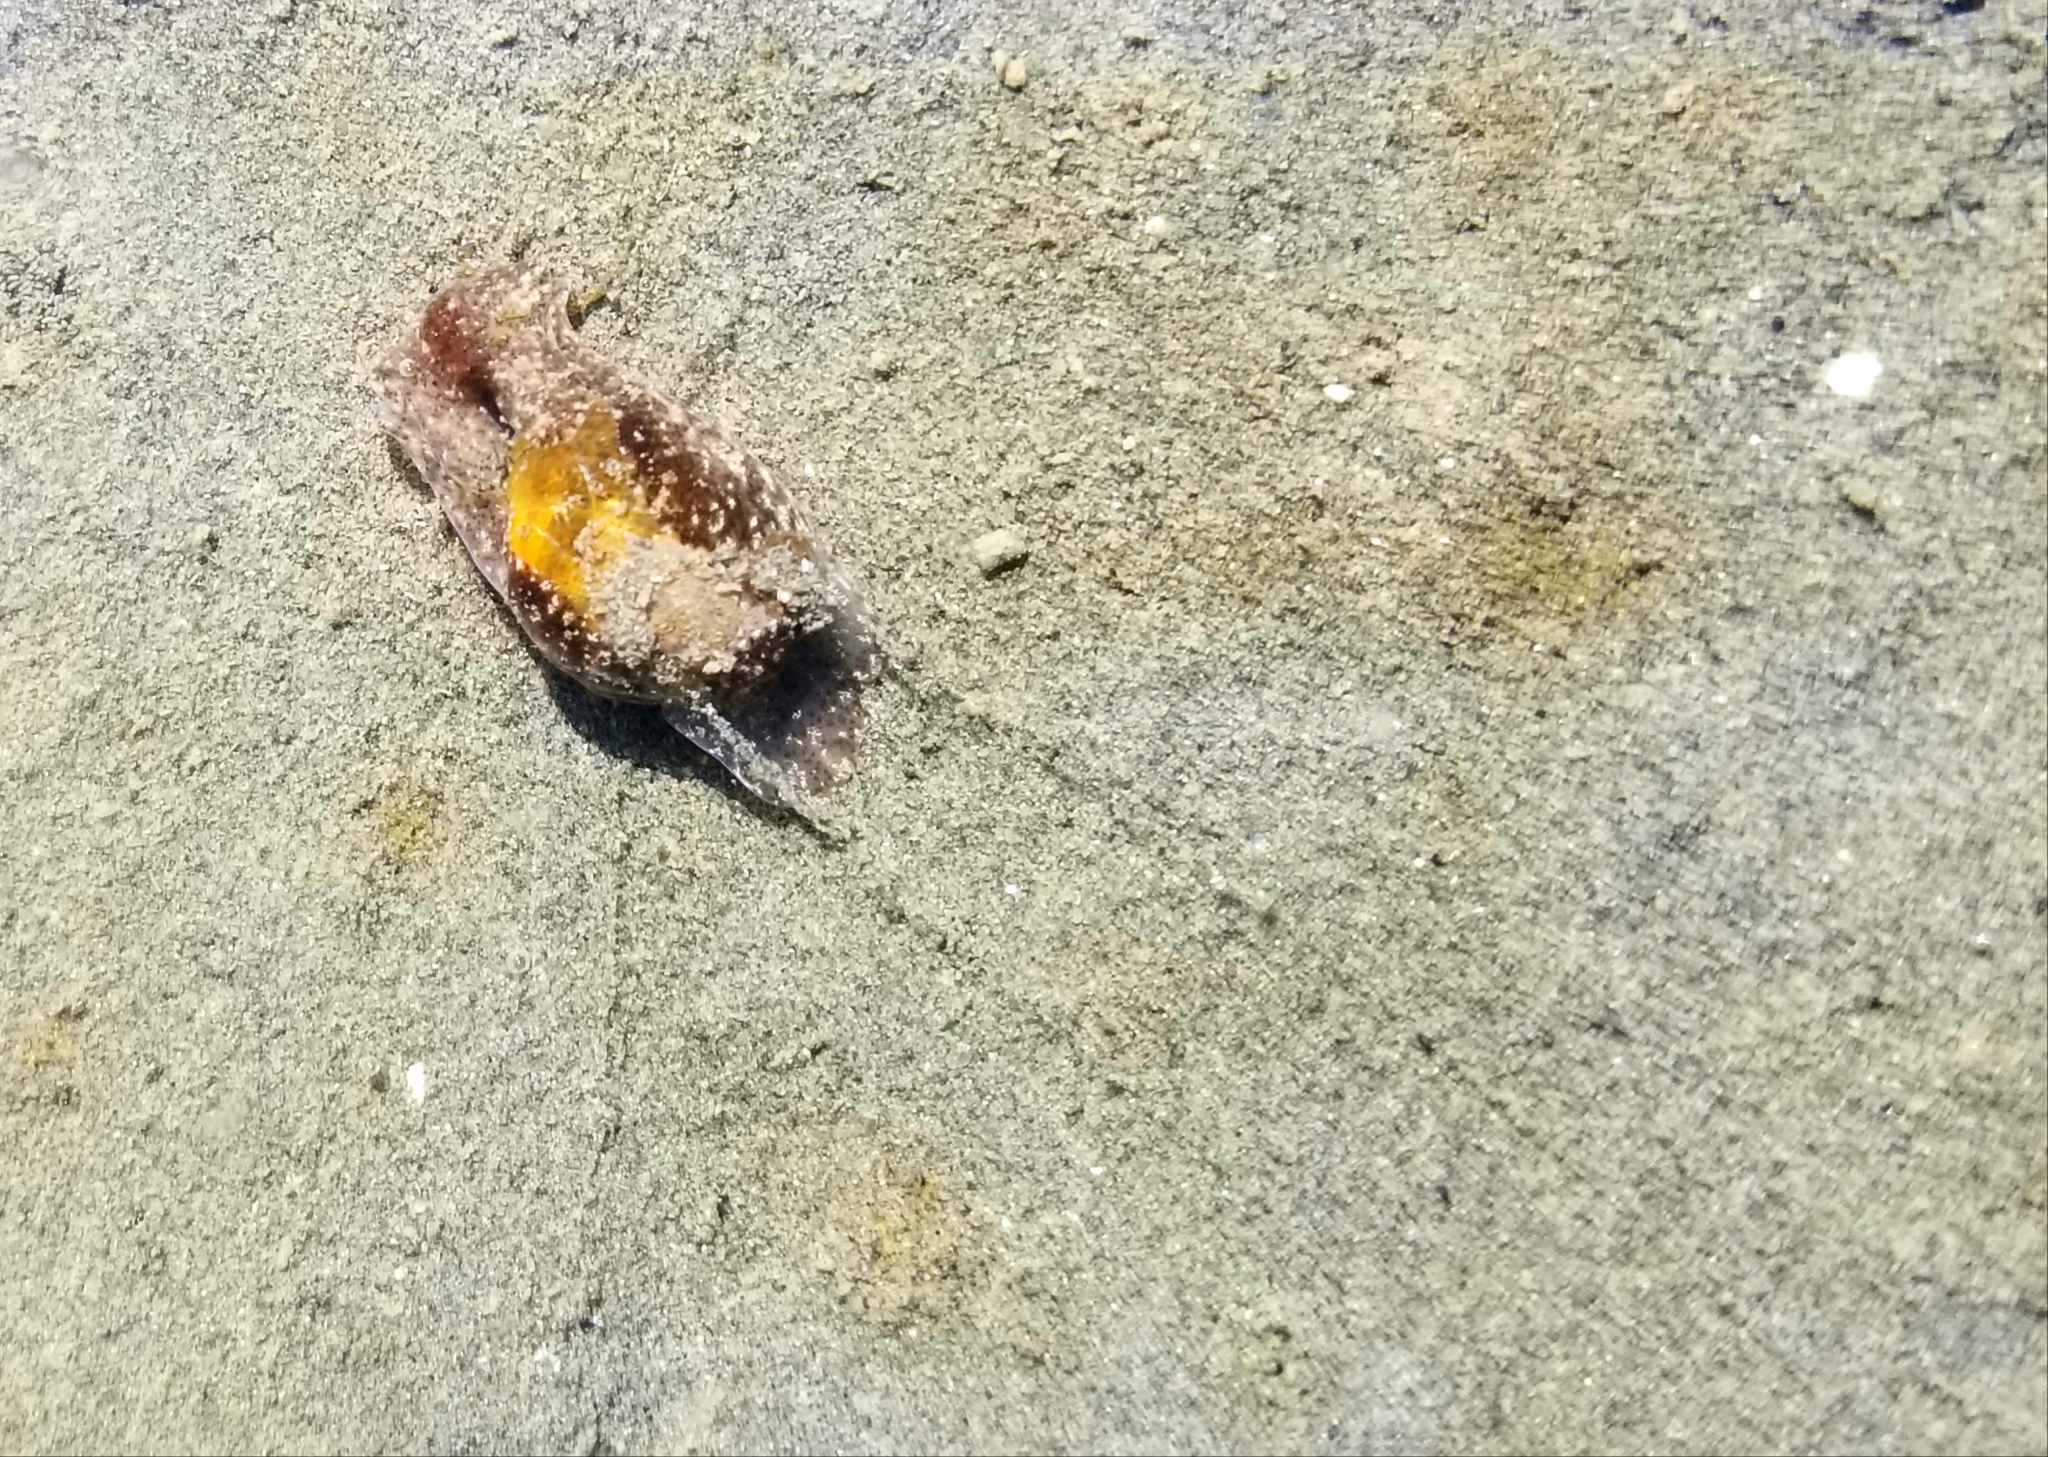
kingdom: Animalia
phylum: Mollusca
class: Gastropoda
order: Cephalaspidea
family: Haminoeidae
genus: Haloa
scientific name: Haloa japonica
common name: Japanese bubble snail
